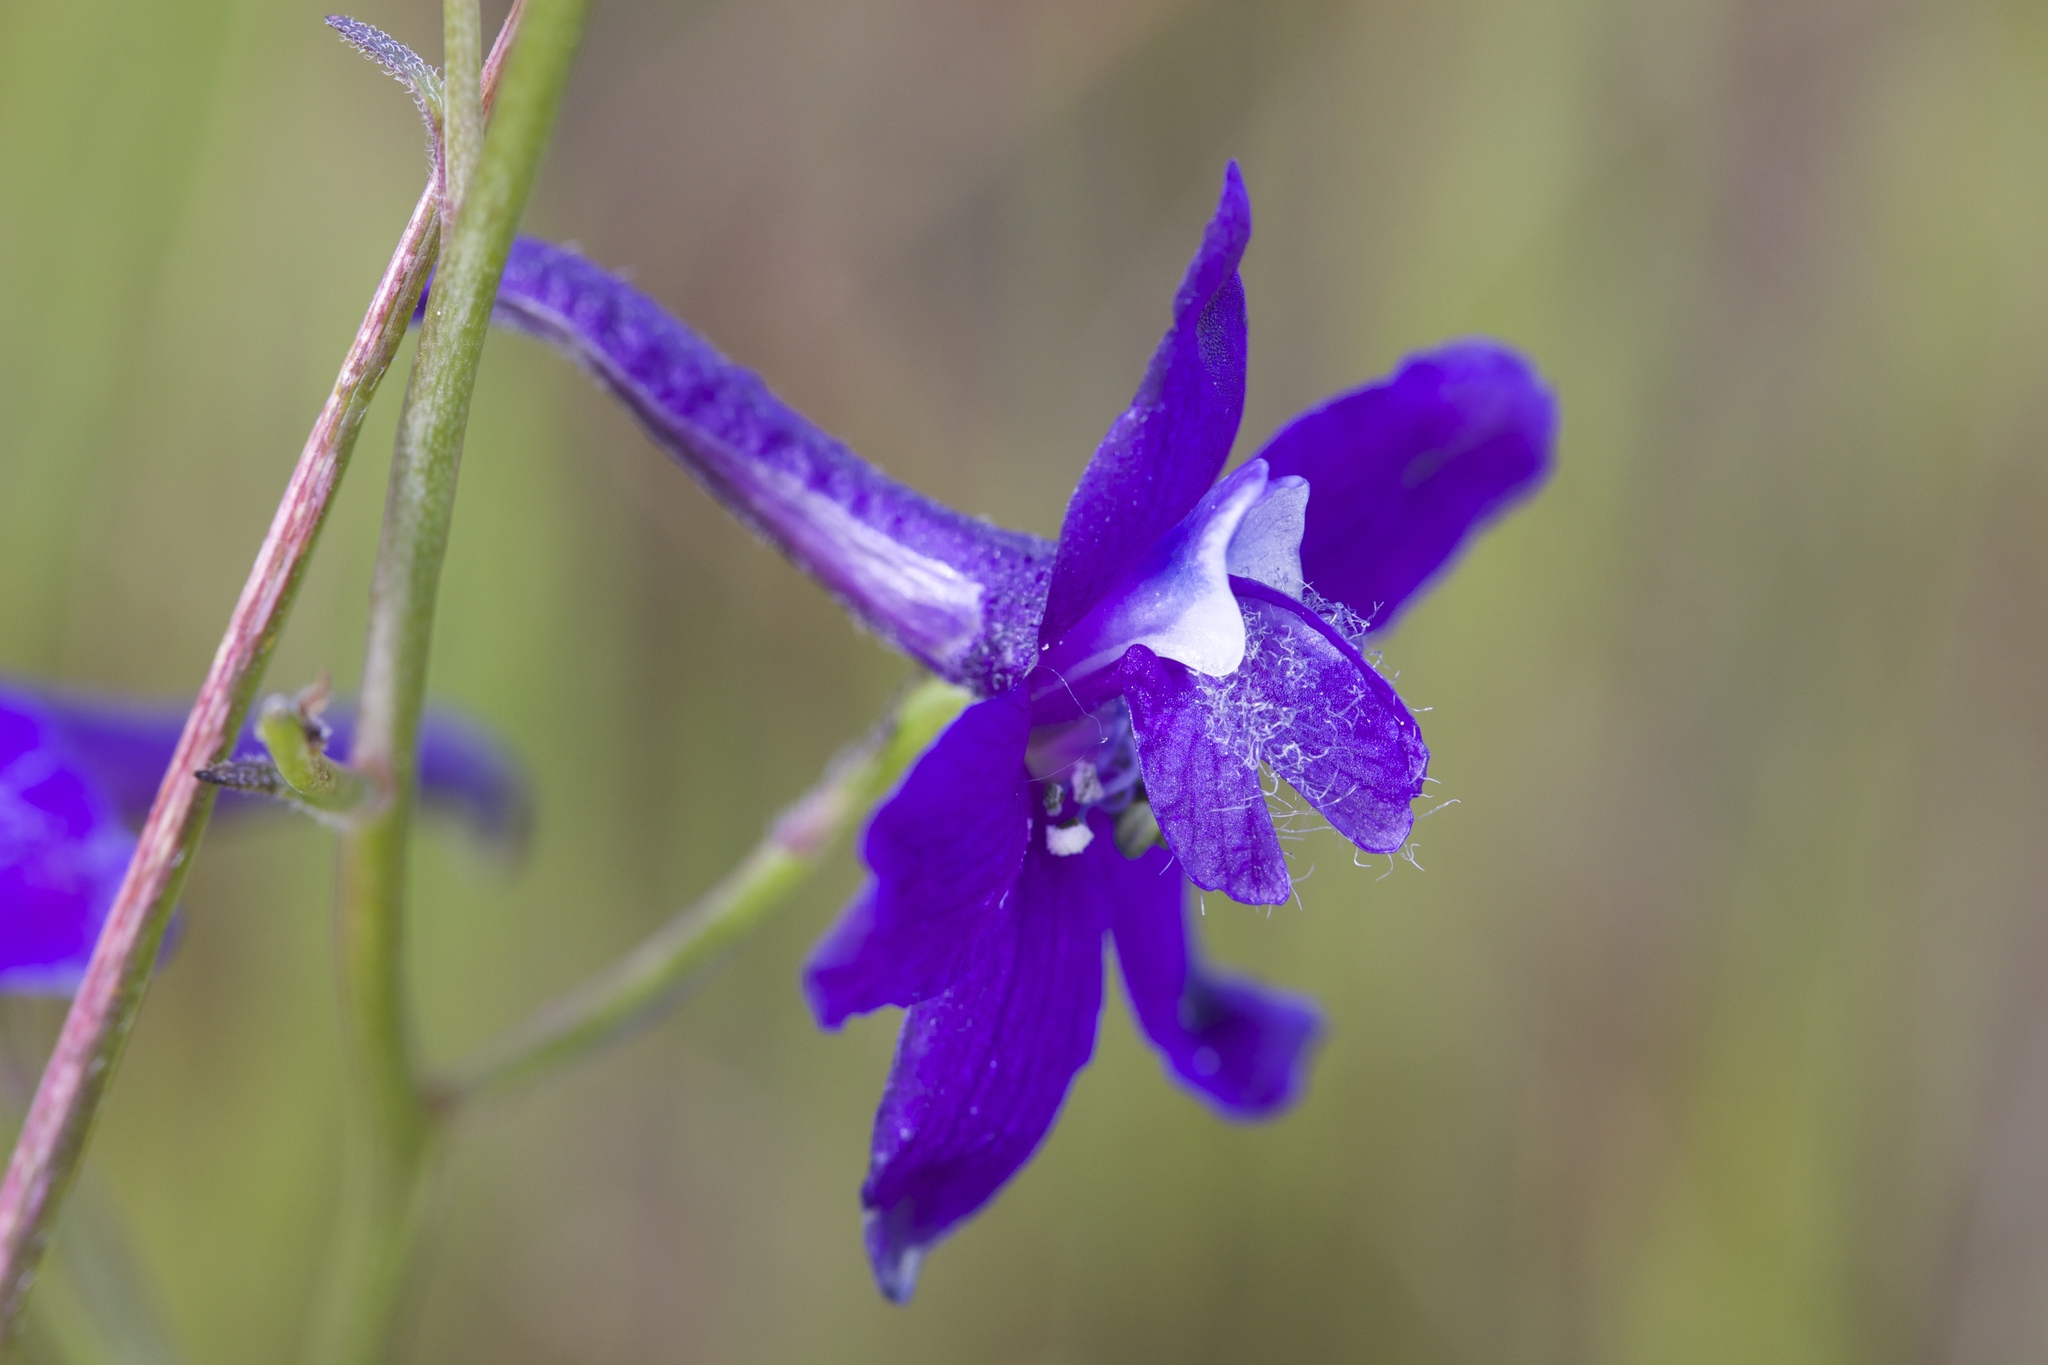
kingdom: Plantae
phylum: Tracheophyta
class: Magnoliopsida
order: Ranunculales
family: Ranunculaceae
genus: Delphinium
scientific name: Delphinium hesperium
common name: Western larkspur
